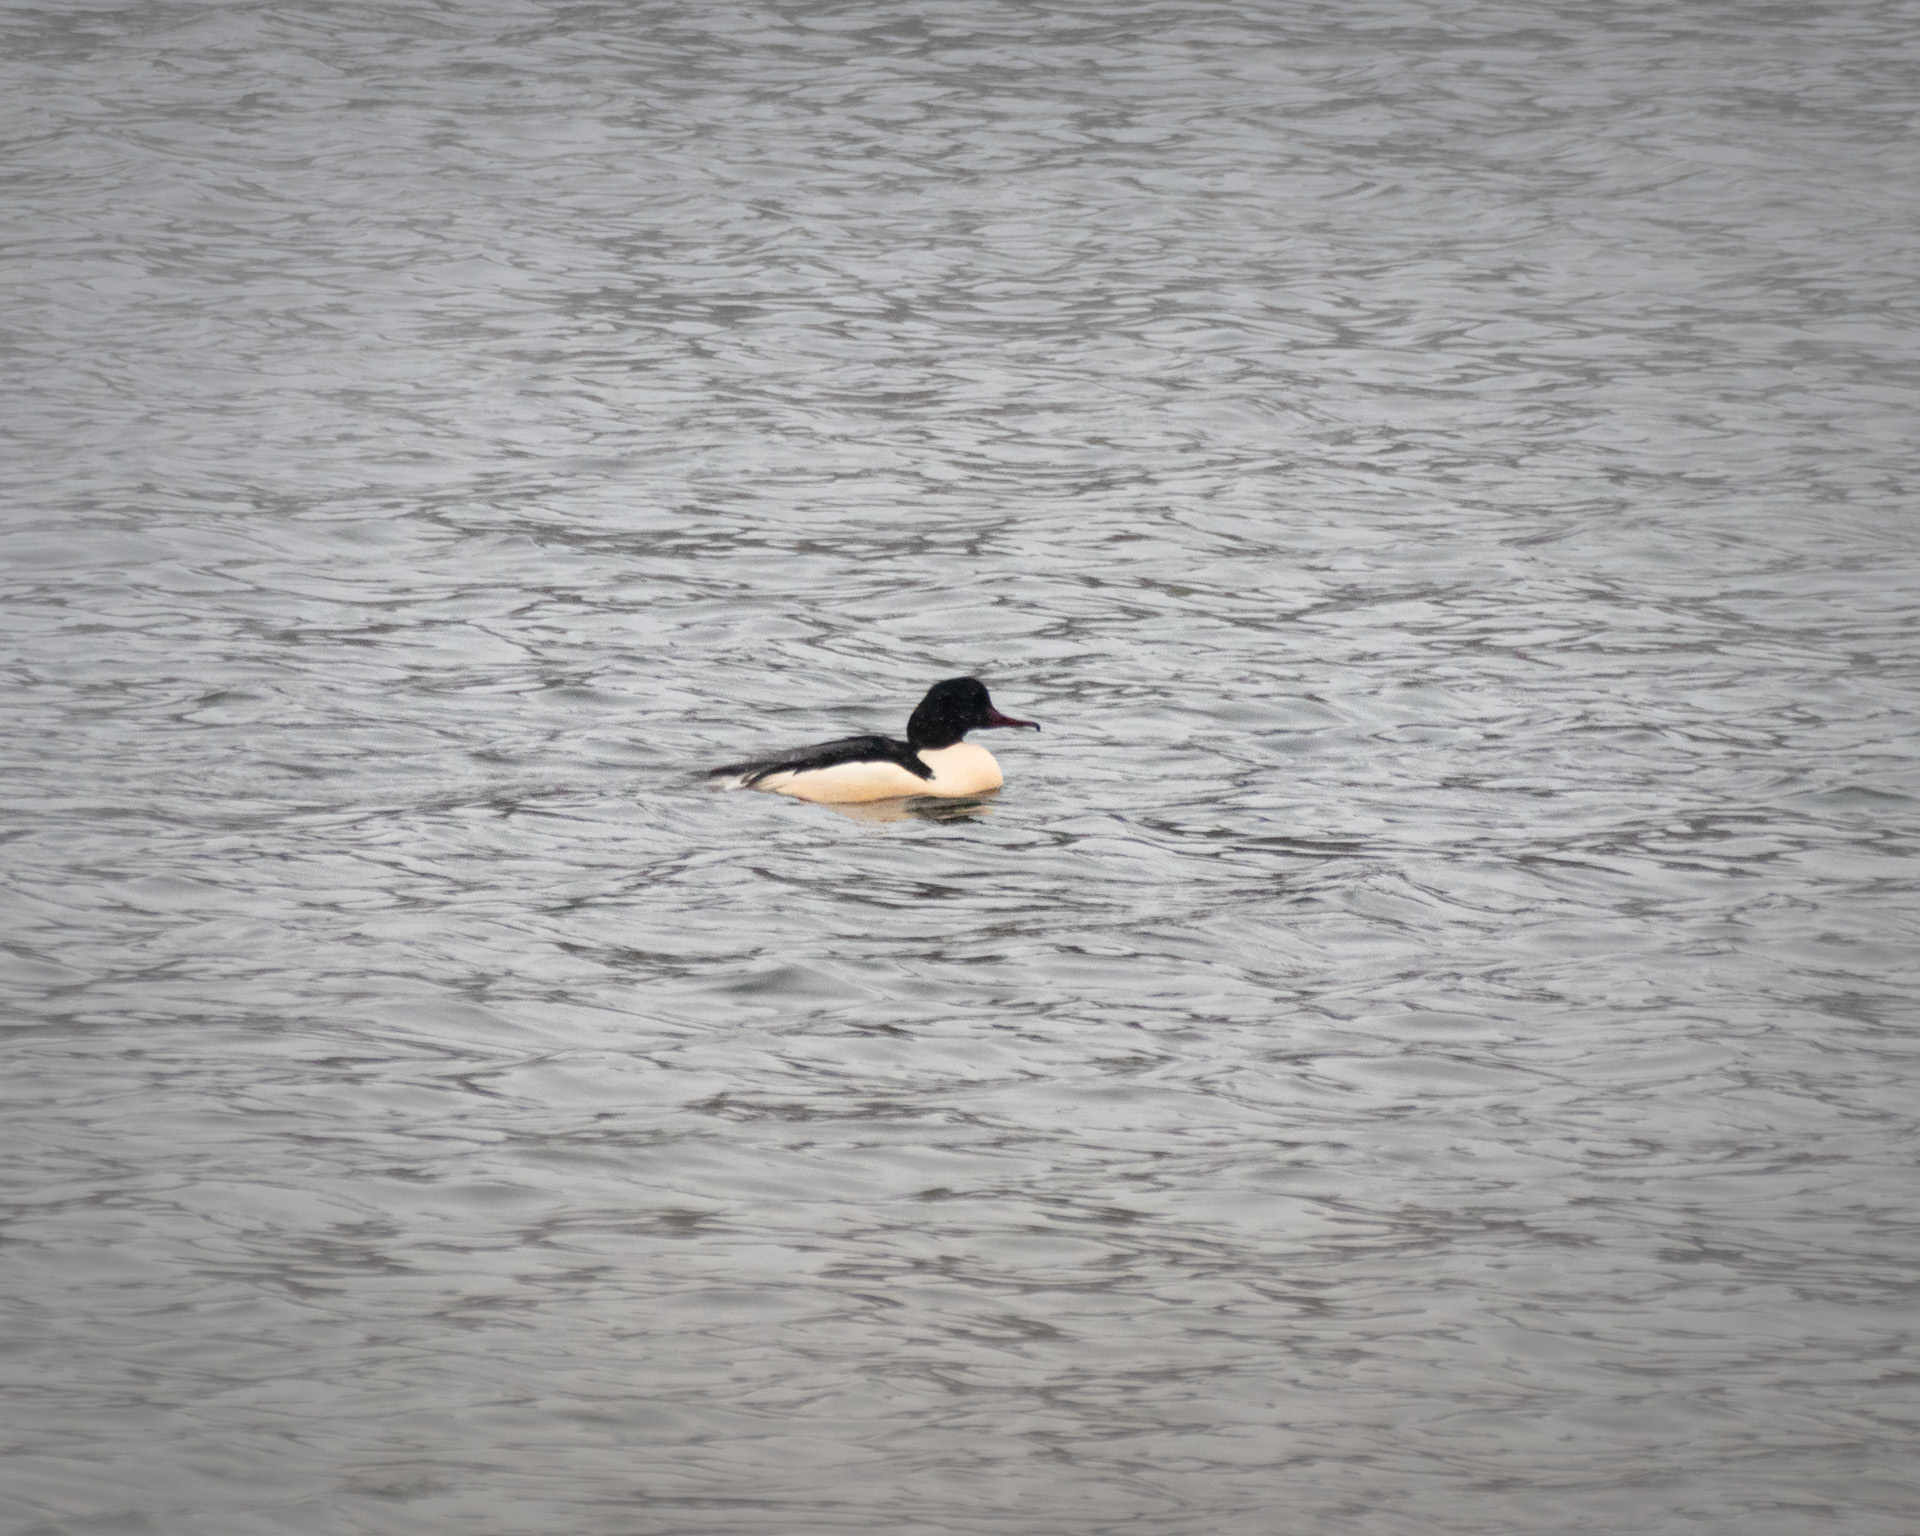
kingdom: Animalia
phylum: Chordata
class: Aves
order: Anseriformes
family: Anatidae
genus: Mergus
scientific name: Mergus merganser
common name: Common merganser
